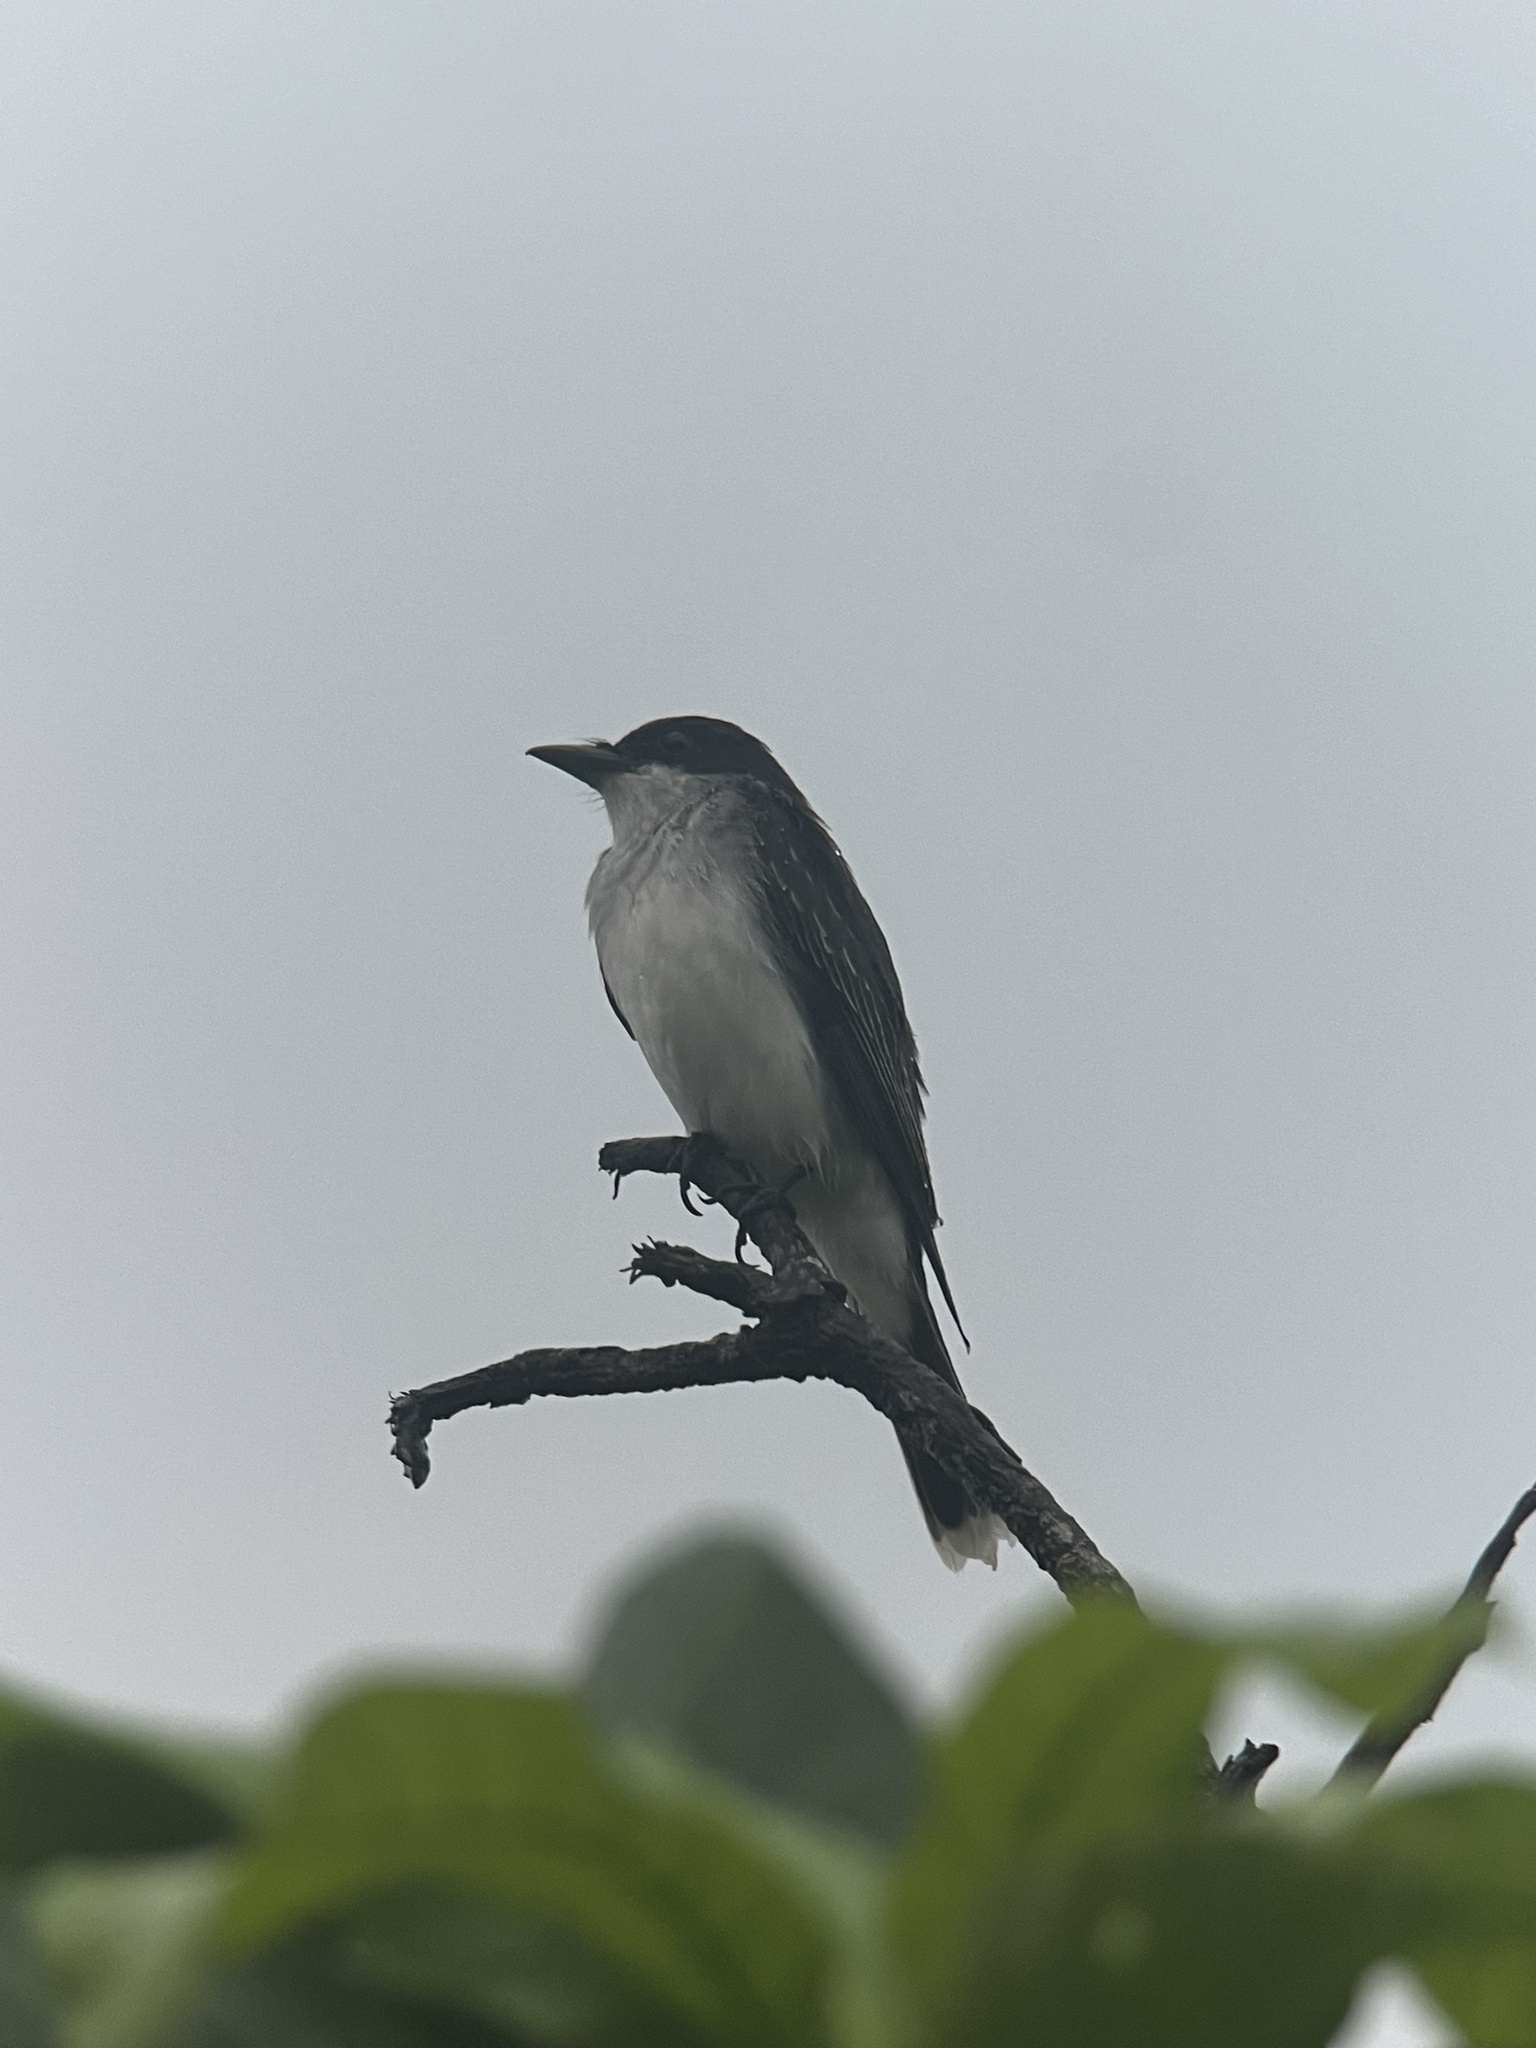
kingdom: Animalia
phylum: Chordata
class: Aves
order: Passeriformes
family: Tyrannidae
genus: Tyrannus
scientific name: Tyrannus tyrannus
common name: Eastern kingbird
